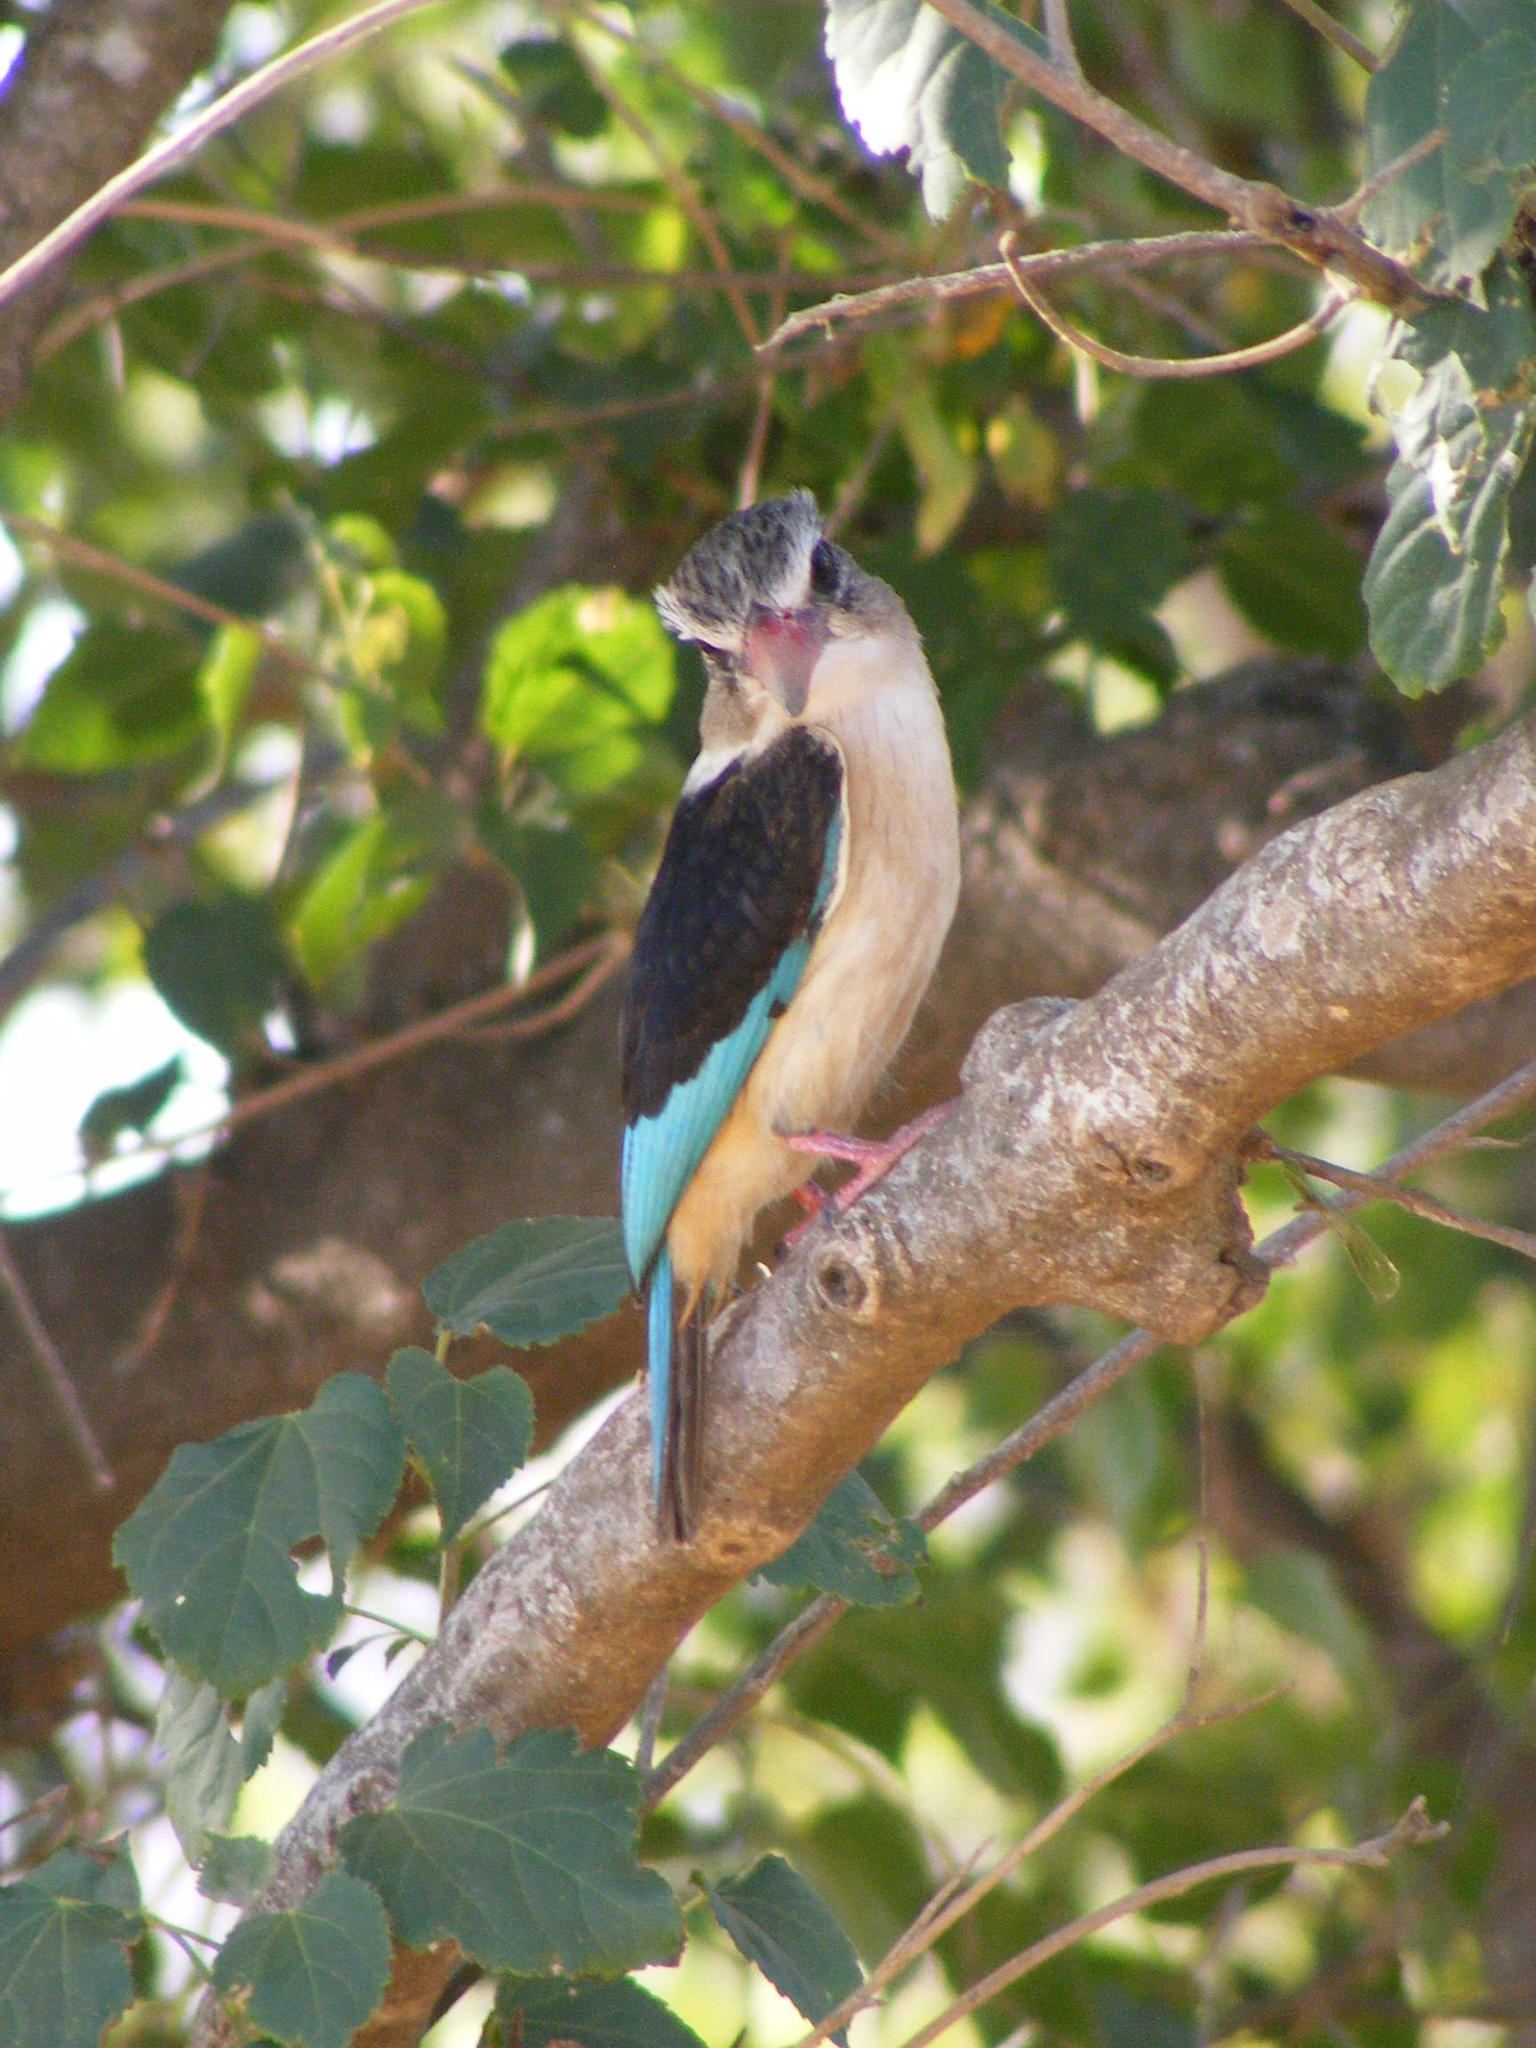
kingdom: Animalia
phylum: Chordata
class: Aves
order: Coraciiformes
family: Alcedinidae
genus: Halcyon
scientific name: Halcyon albiventris
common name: Brown-hooded kingfisher
